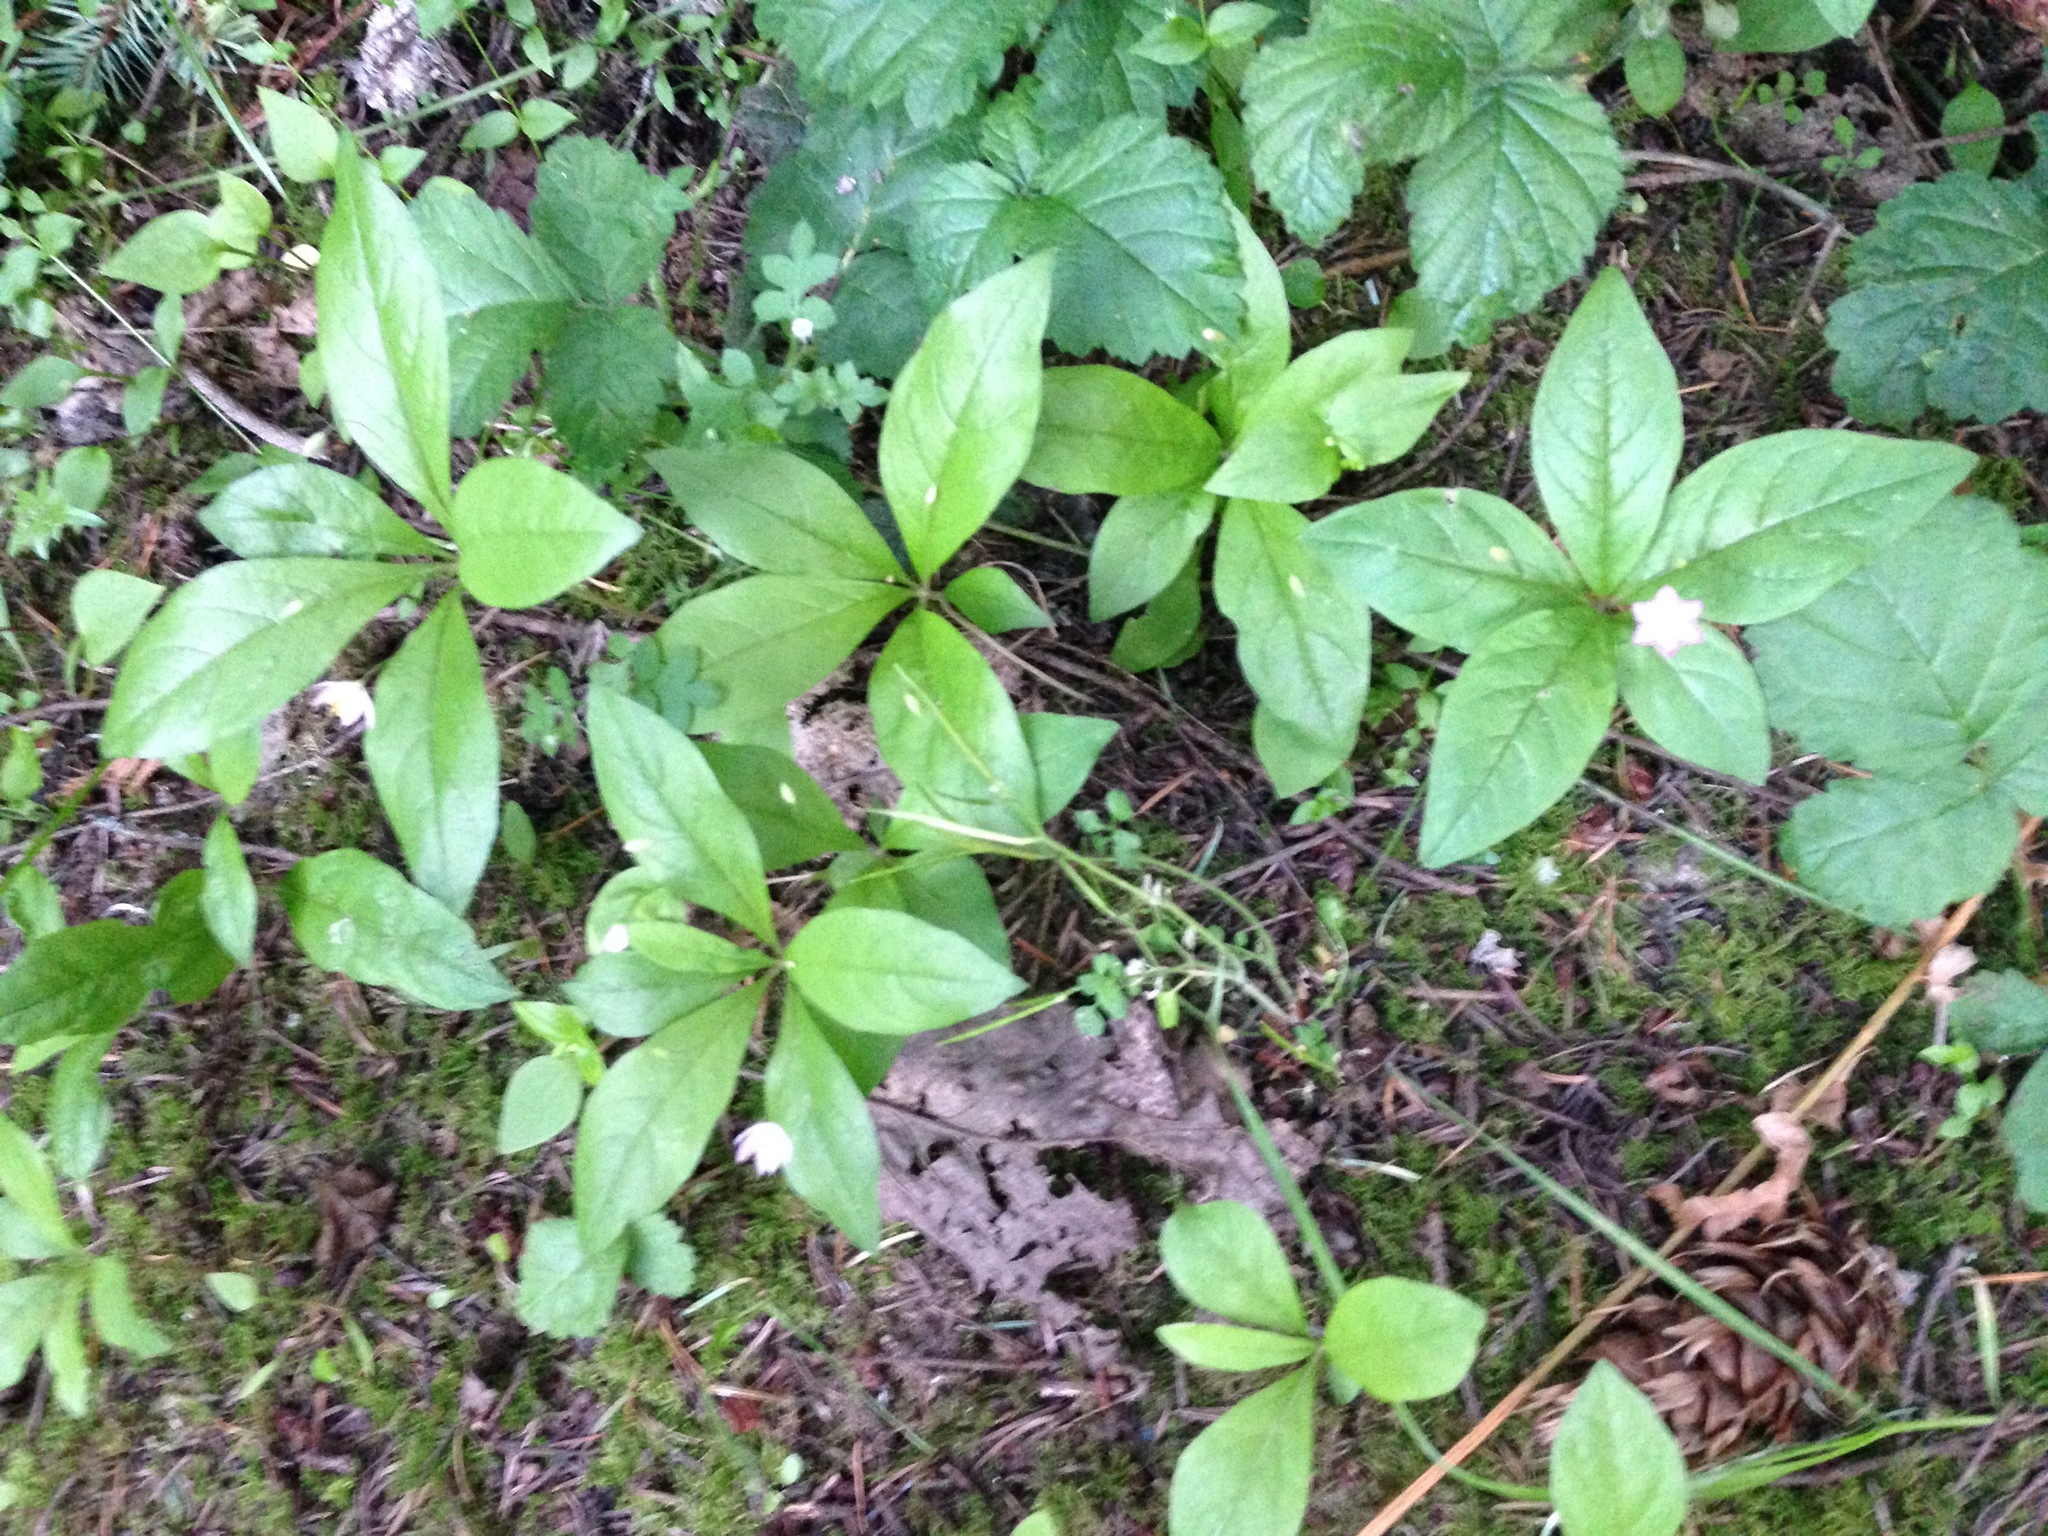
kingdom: Plantae
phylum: Tracheophyta
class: Magnoliopsida
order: Ericales
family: Primulaceae
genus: Lysimachia
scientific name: Lysimachia latifolia
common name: Pacific starflower
